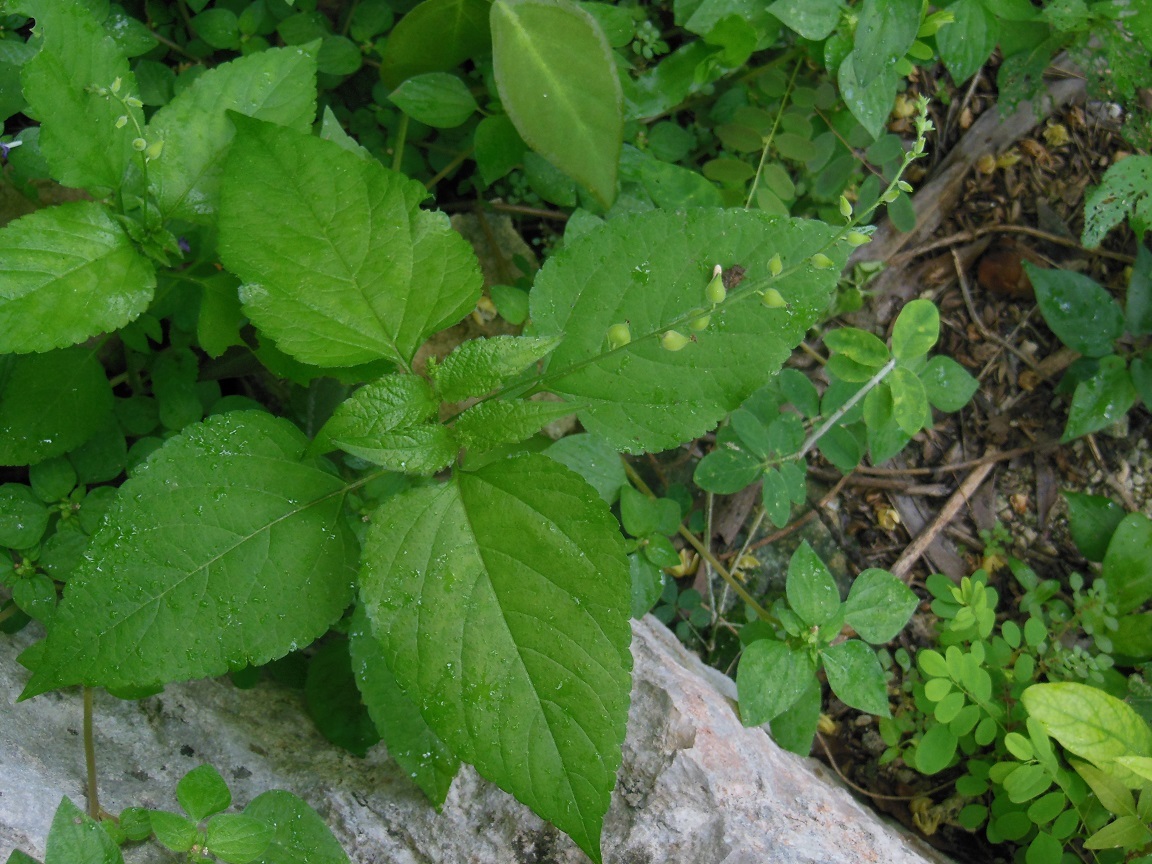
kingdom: Plantae
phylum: Tracheophyta
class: Magnoliopsida
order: Lamiales
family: Verbenaceae
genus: Priva
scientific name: Priva lappulacea
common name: Fasten-'pon-coat
